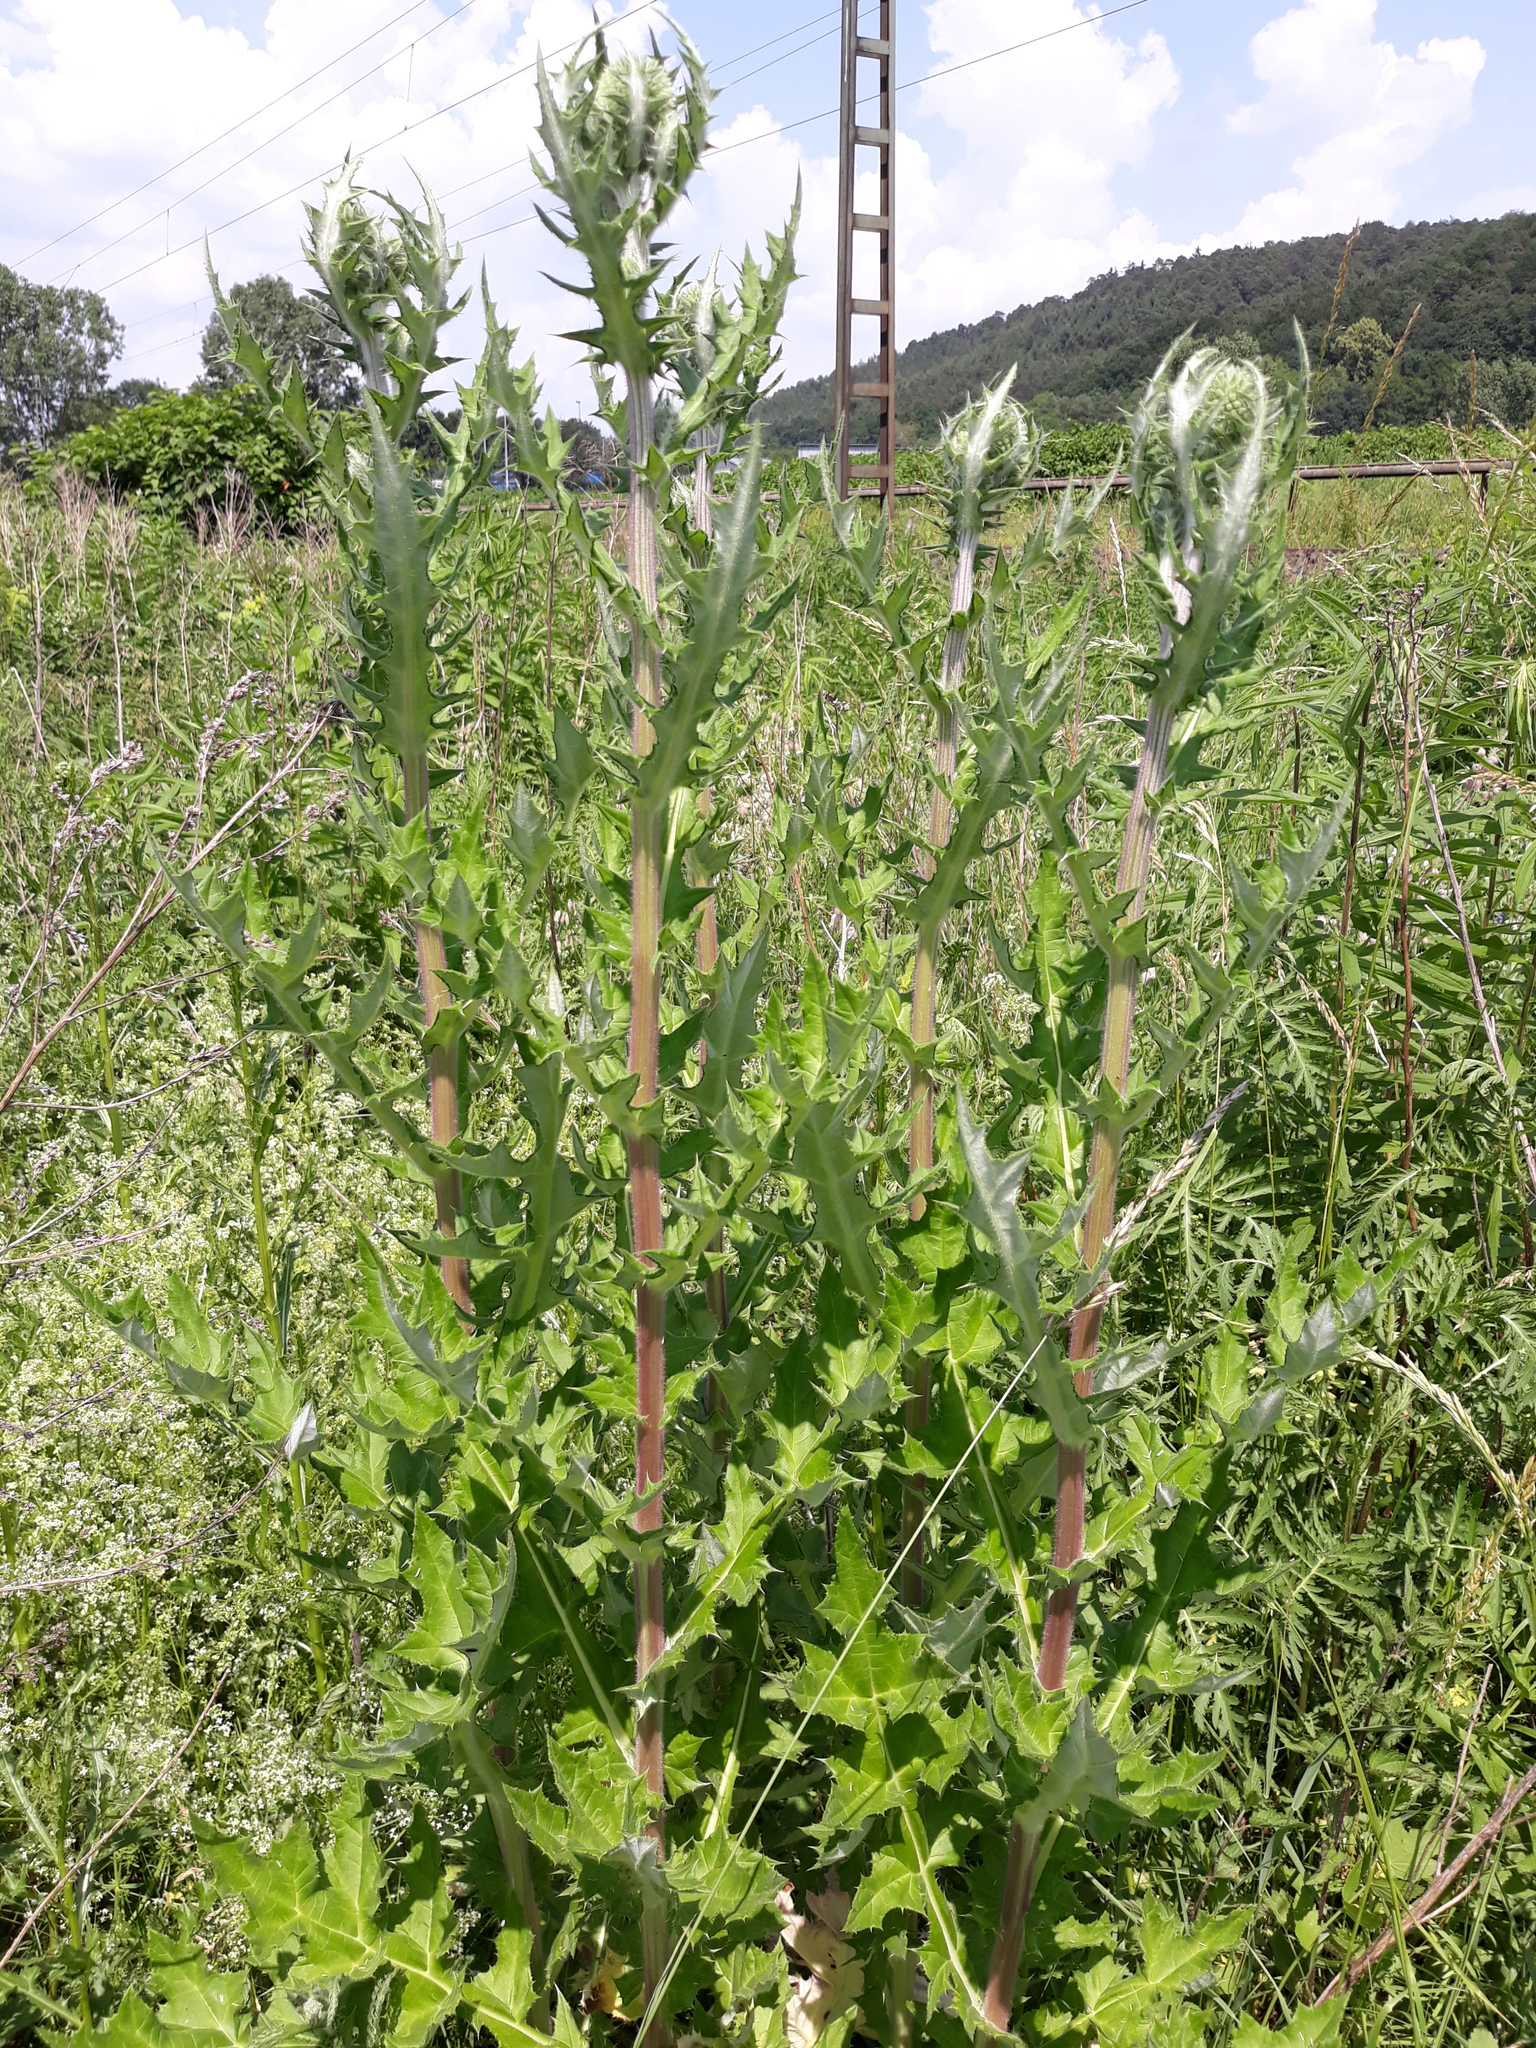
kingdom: Plantae
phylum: Tracheophyta
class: Magnoliopsida
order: Asterales
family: Asteraceae
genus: Echinops
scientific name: Echinops sphaerocephalus
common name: Glandular globe-thistle
